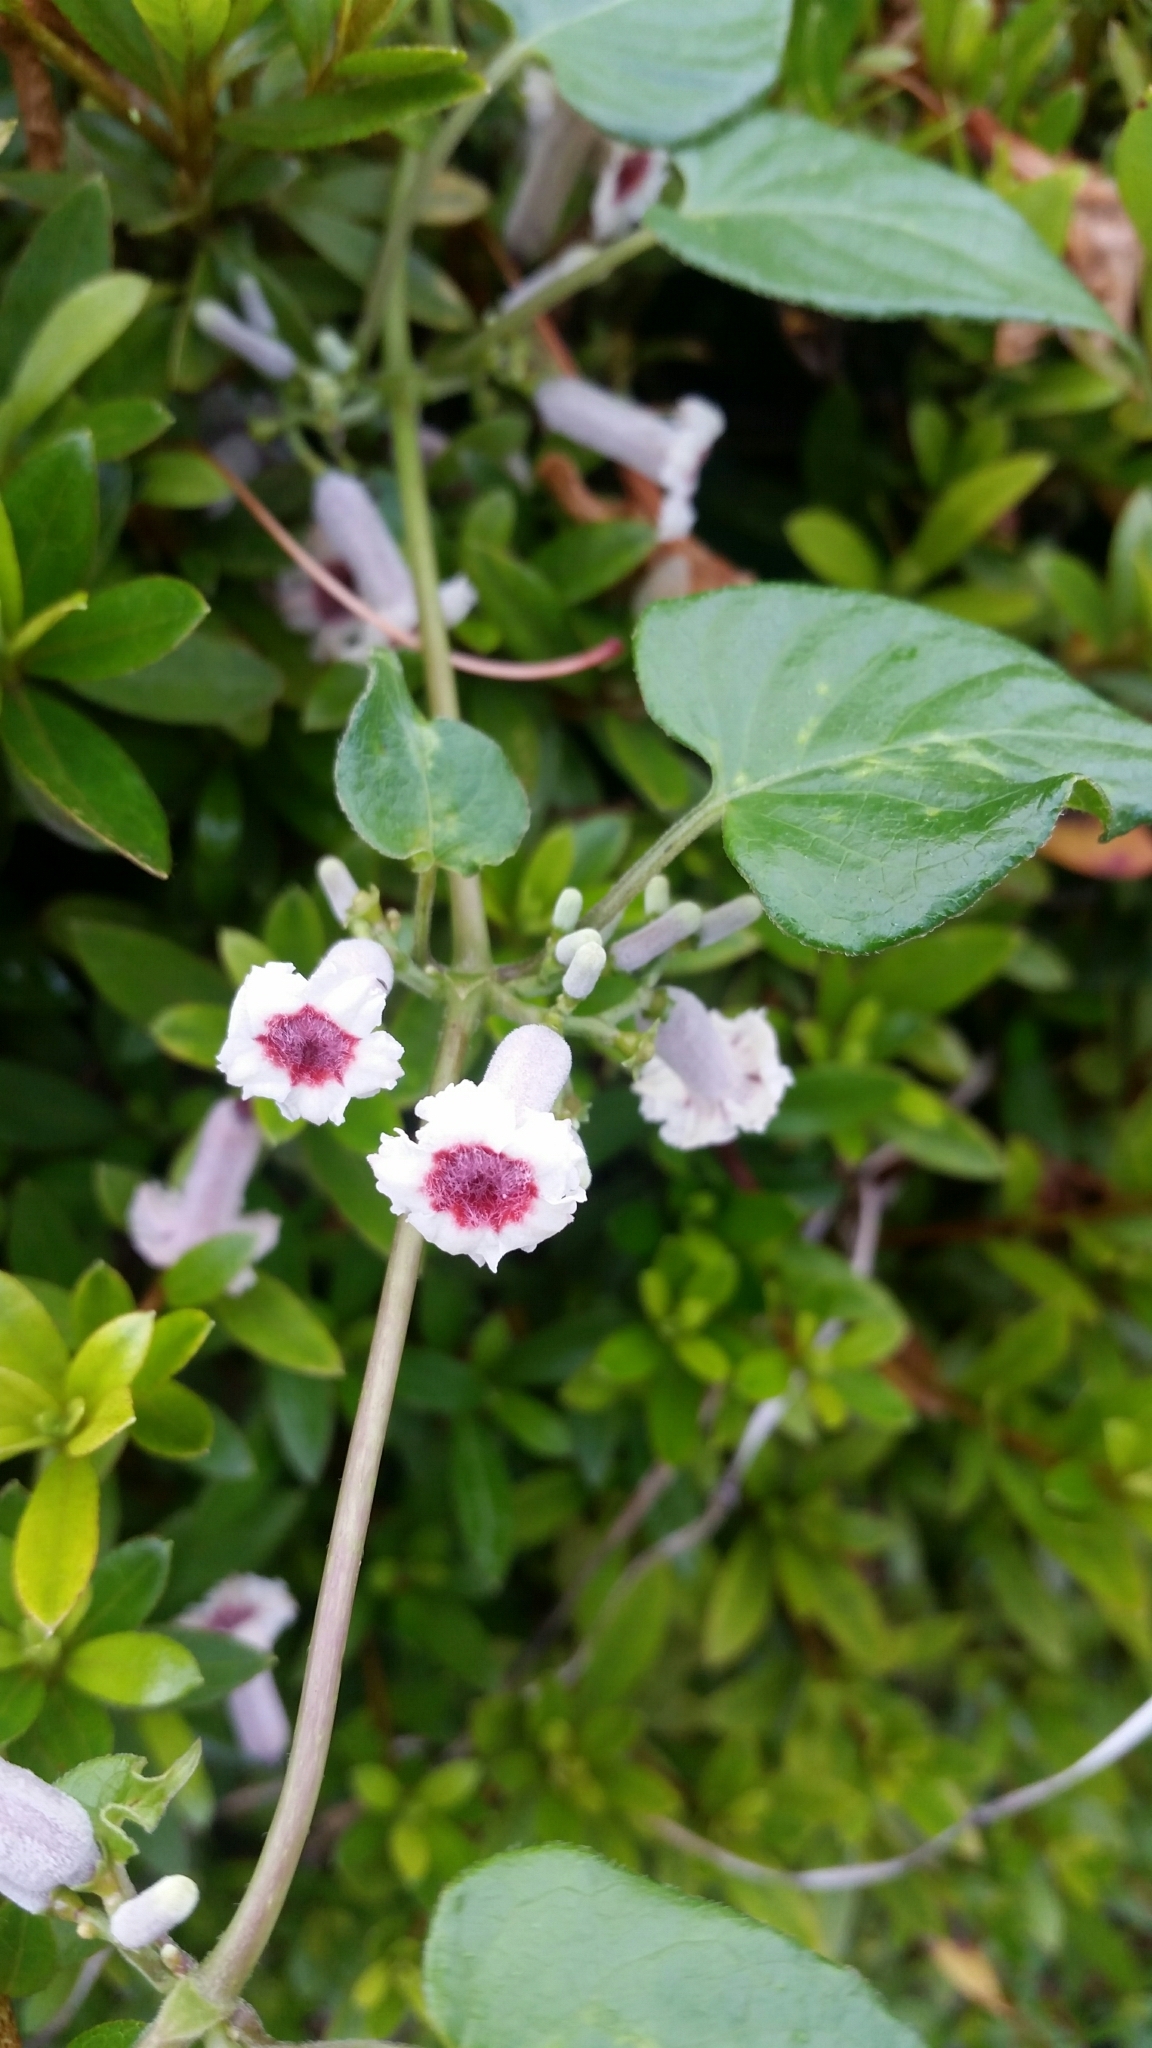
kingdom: Plantae
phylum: Tracheophyta
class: Magnoliopsida
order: Gentianales
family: Rubiaceae
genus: Paederia
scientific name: Paederia foetida
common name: Stinkvine
